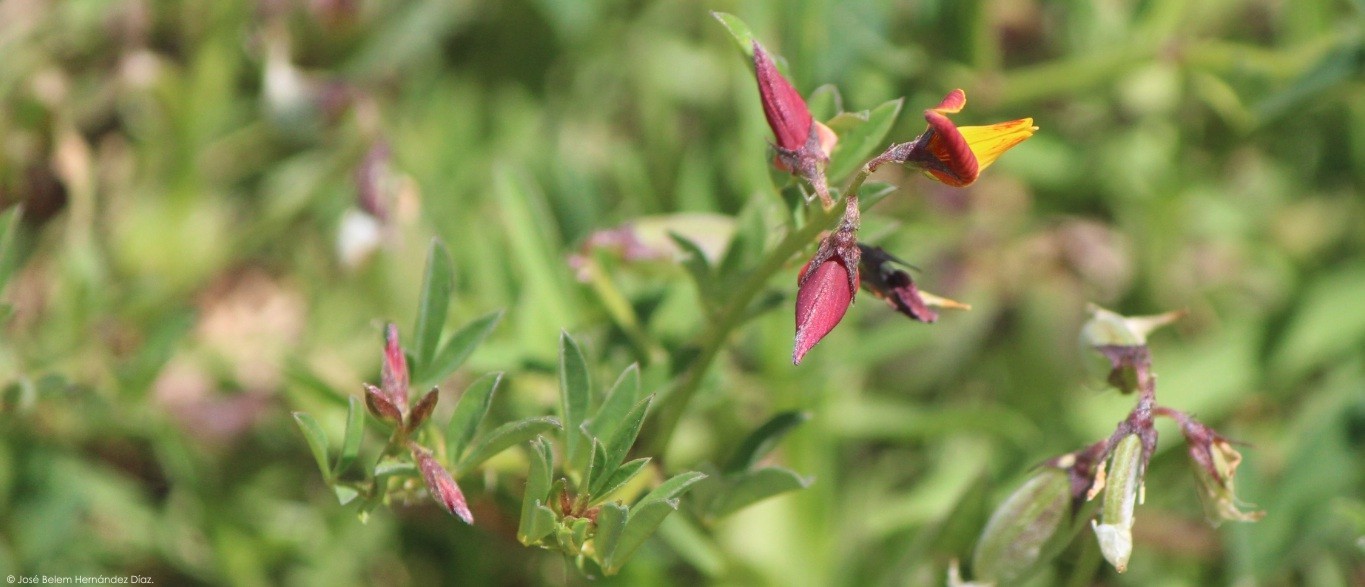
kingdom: Plantae
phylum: Tracheophyta
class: Magnoliopsida
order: Fabales
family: Fabaceae
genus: Crotalaria
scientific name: Crotalaria pumila
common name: Low rattlebox
